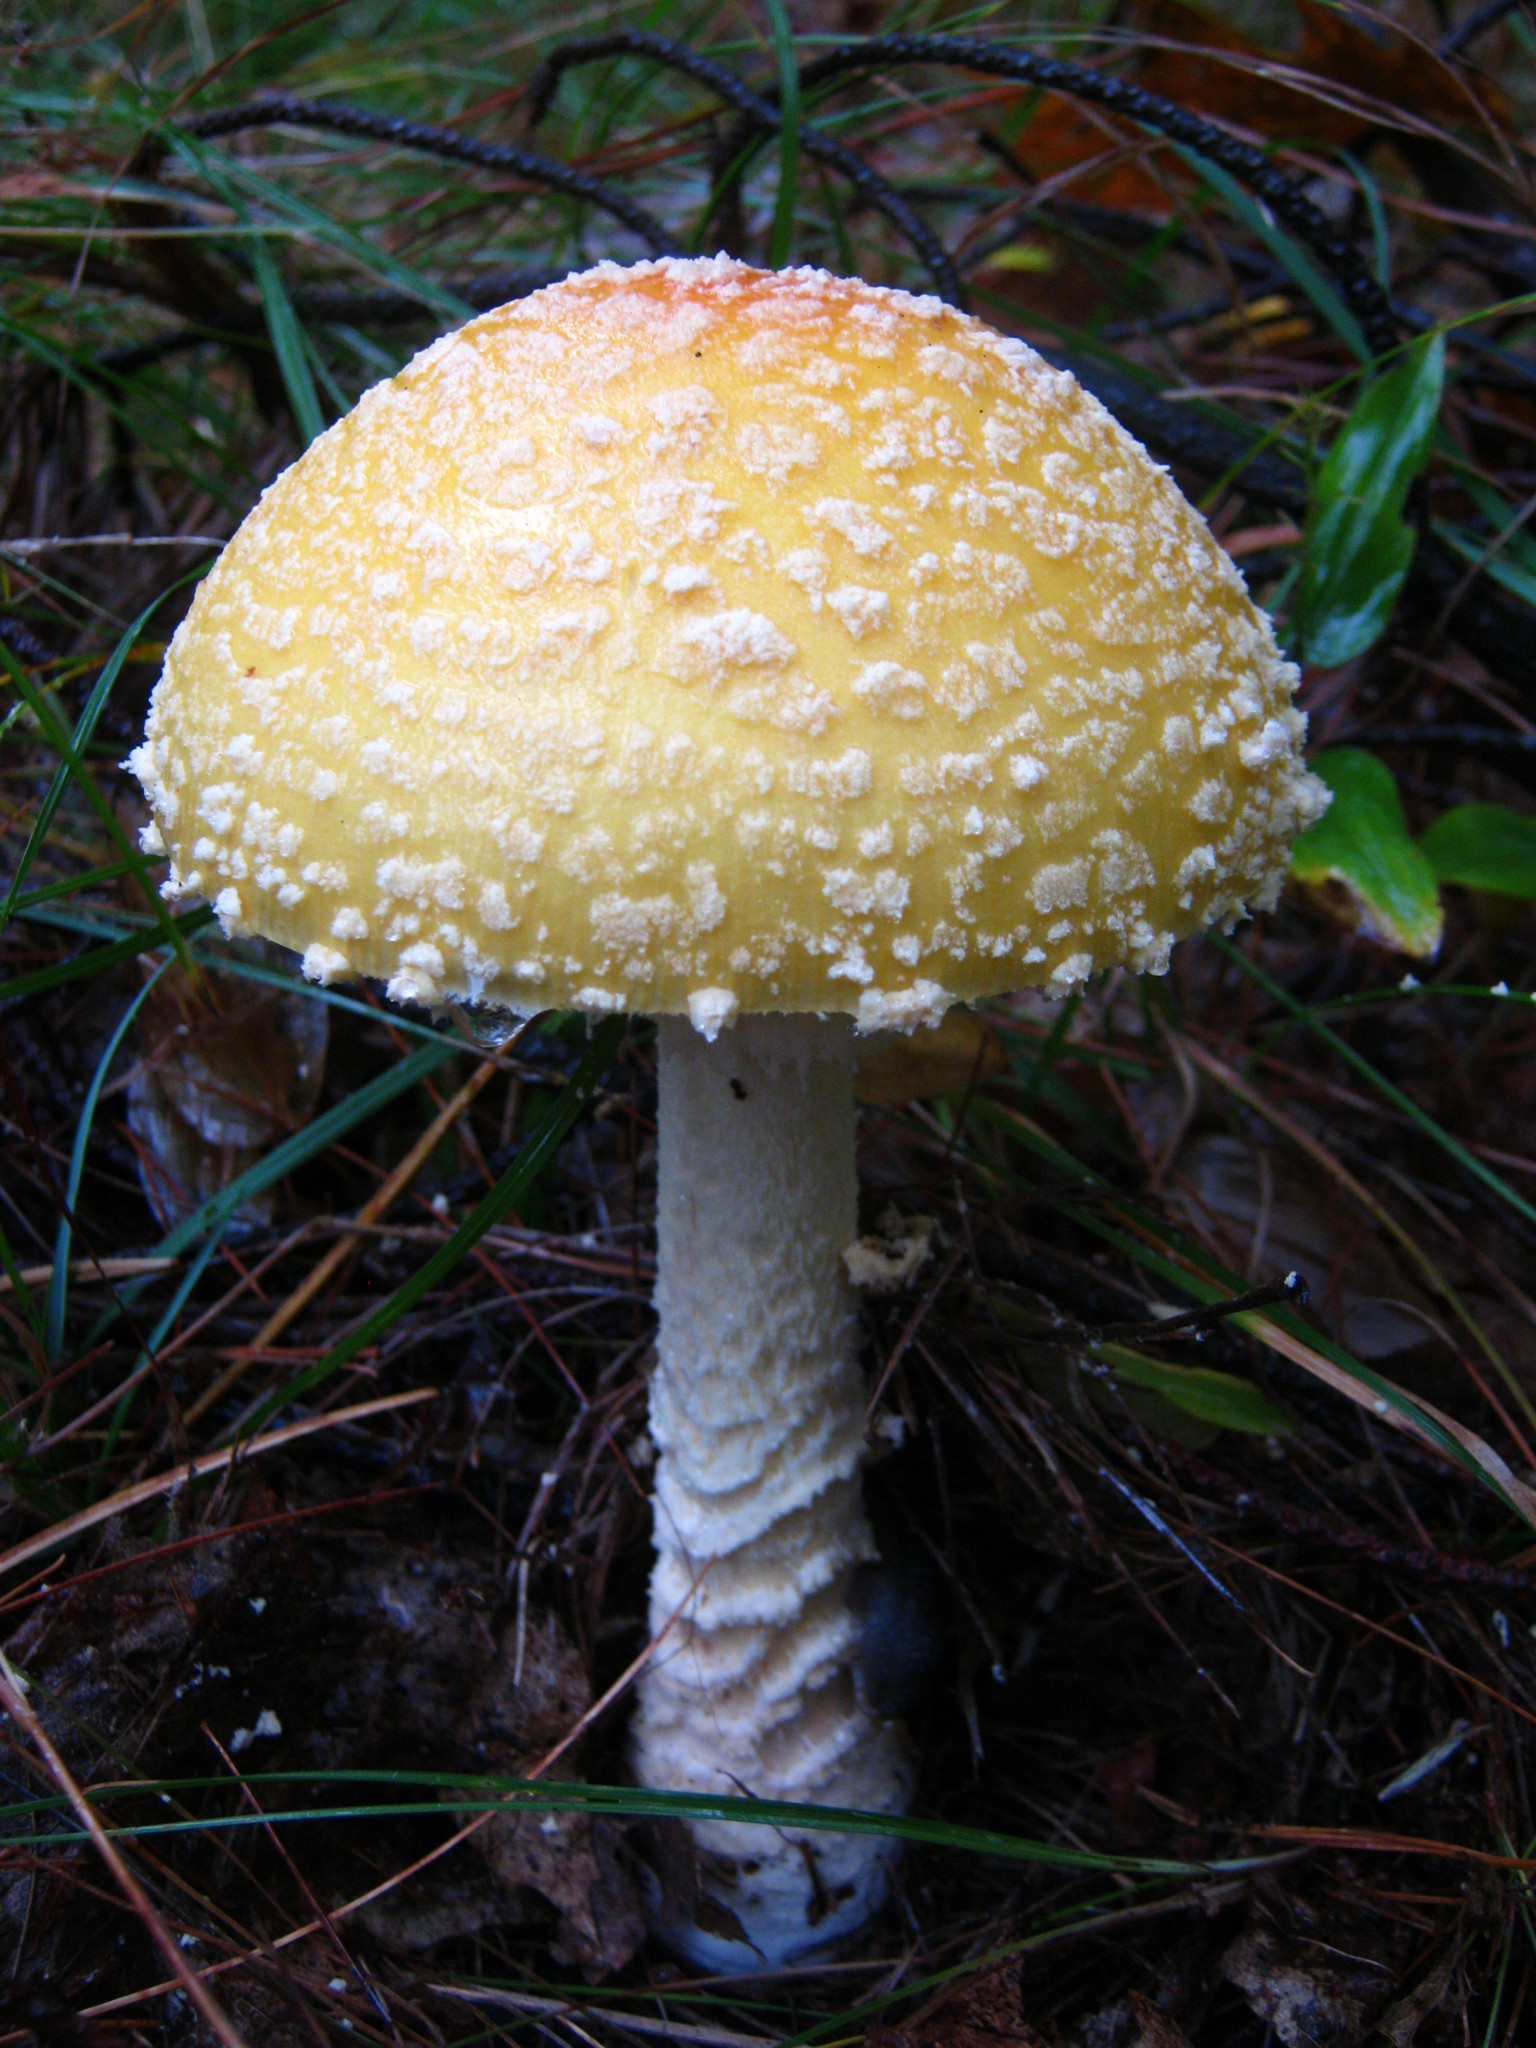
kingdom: Fungi
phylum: Basidiomycota
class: Agaricomycetes
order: Agaricales
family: Amanitaceae
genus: Amanita
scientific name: Amanita muscaria
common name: Fly agaric
